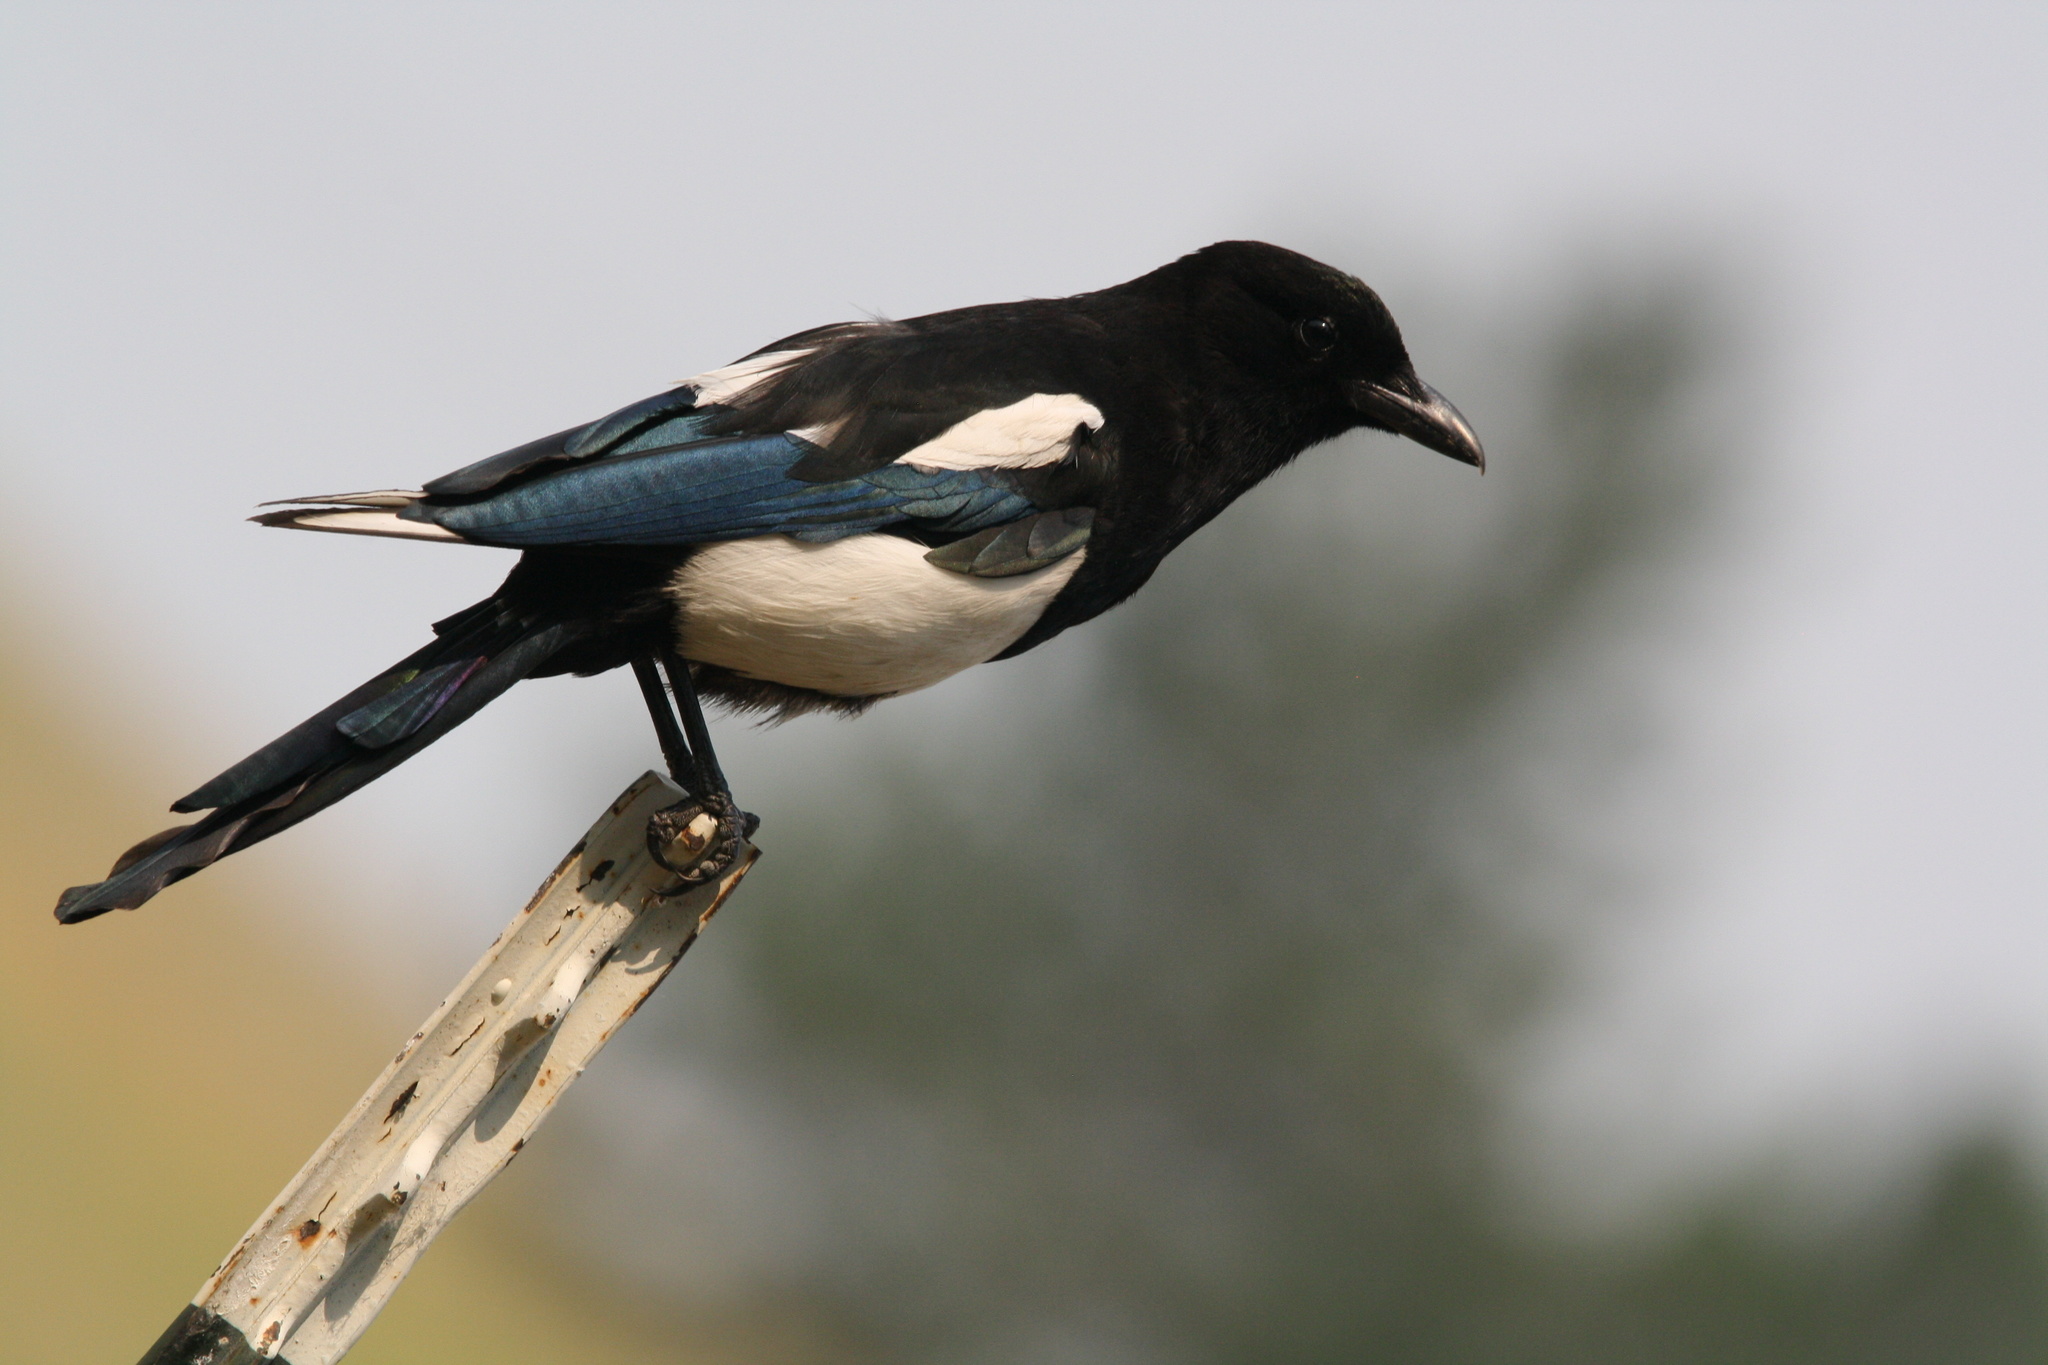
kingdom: Animalia
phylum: Chordata
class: Aves
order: Passeriformes
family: Corvidae
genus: Pica
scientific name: Pica hudsonia
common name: Black-billed magpie
